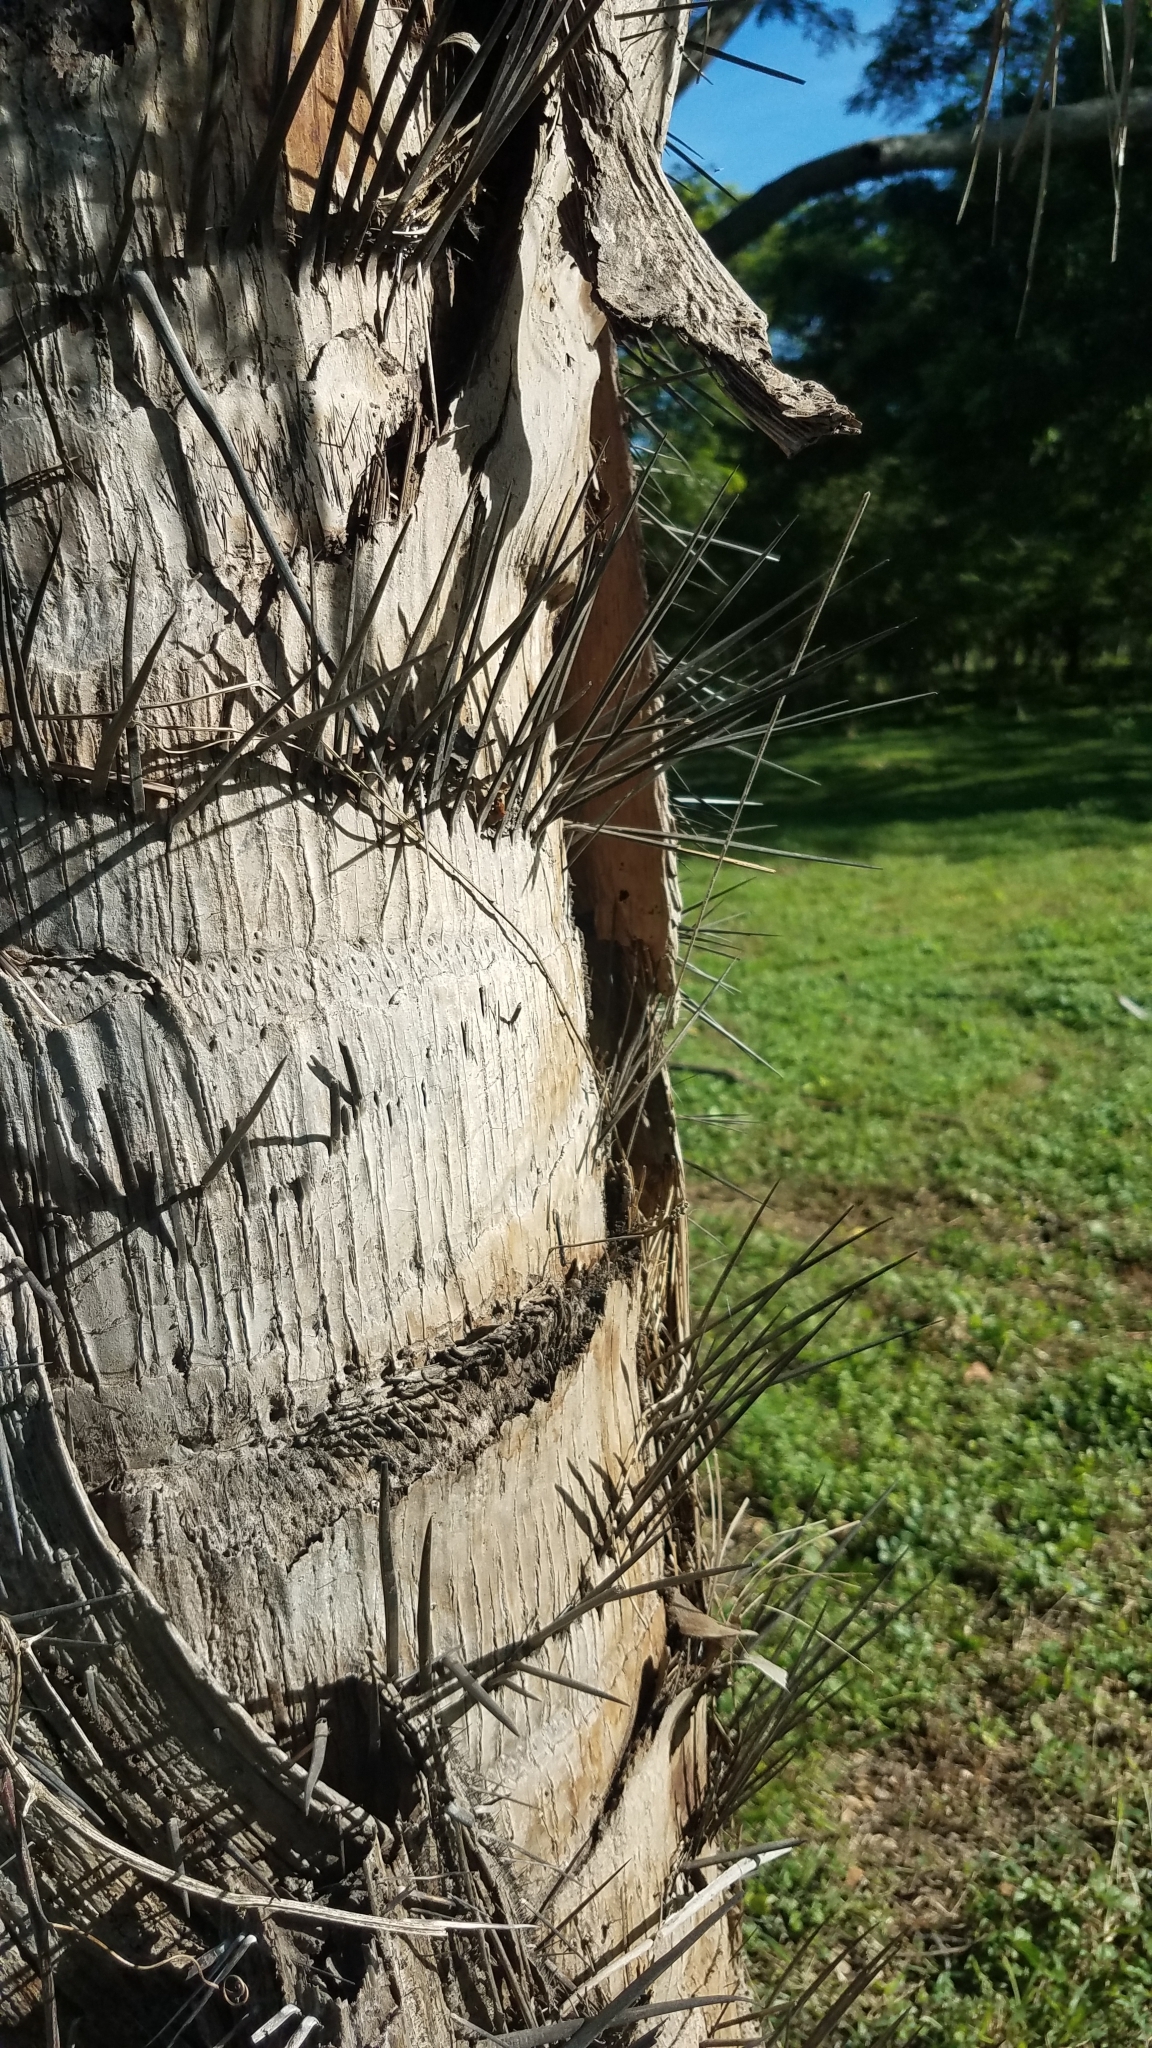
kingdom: Plantae
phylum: Tracheophyta
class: Liliopsida
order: Arecales
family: Arecaceae
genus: Acrocomia
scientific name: Acrocomia aculeata
